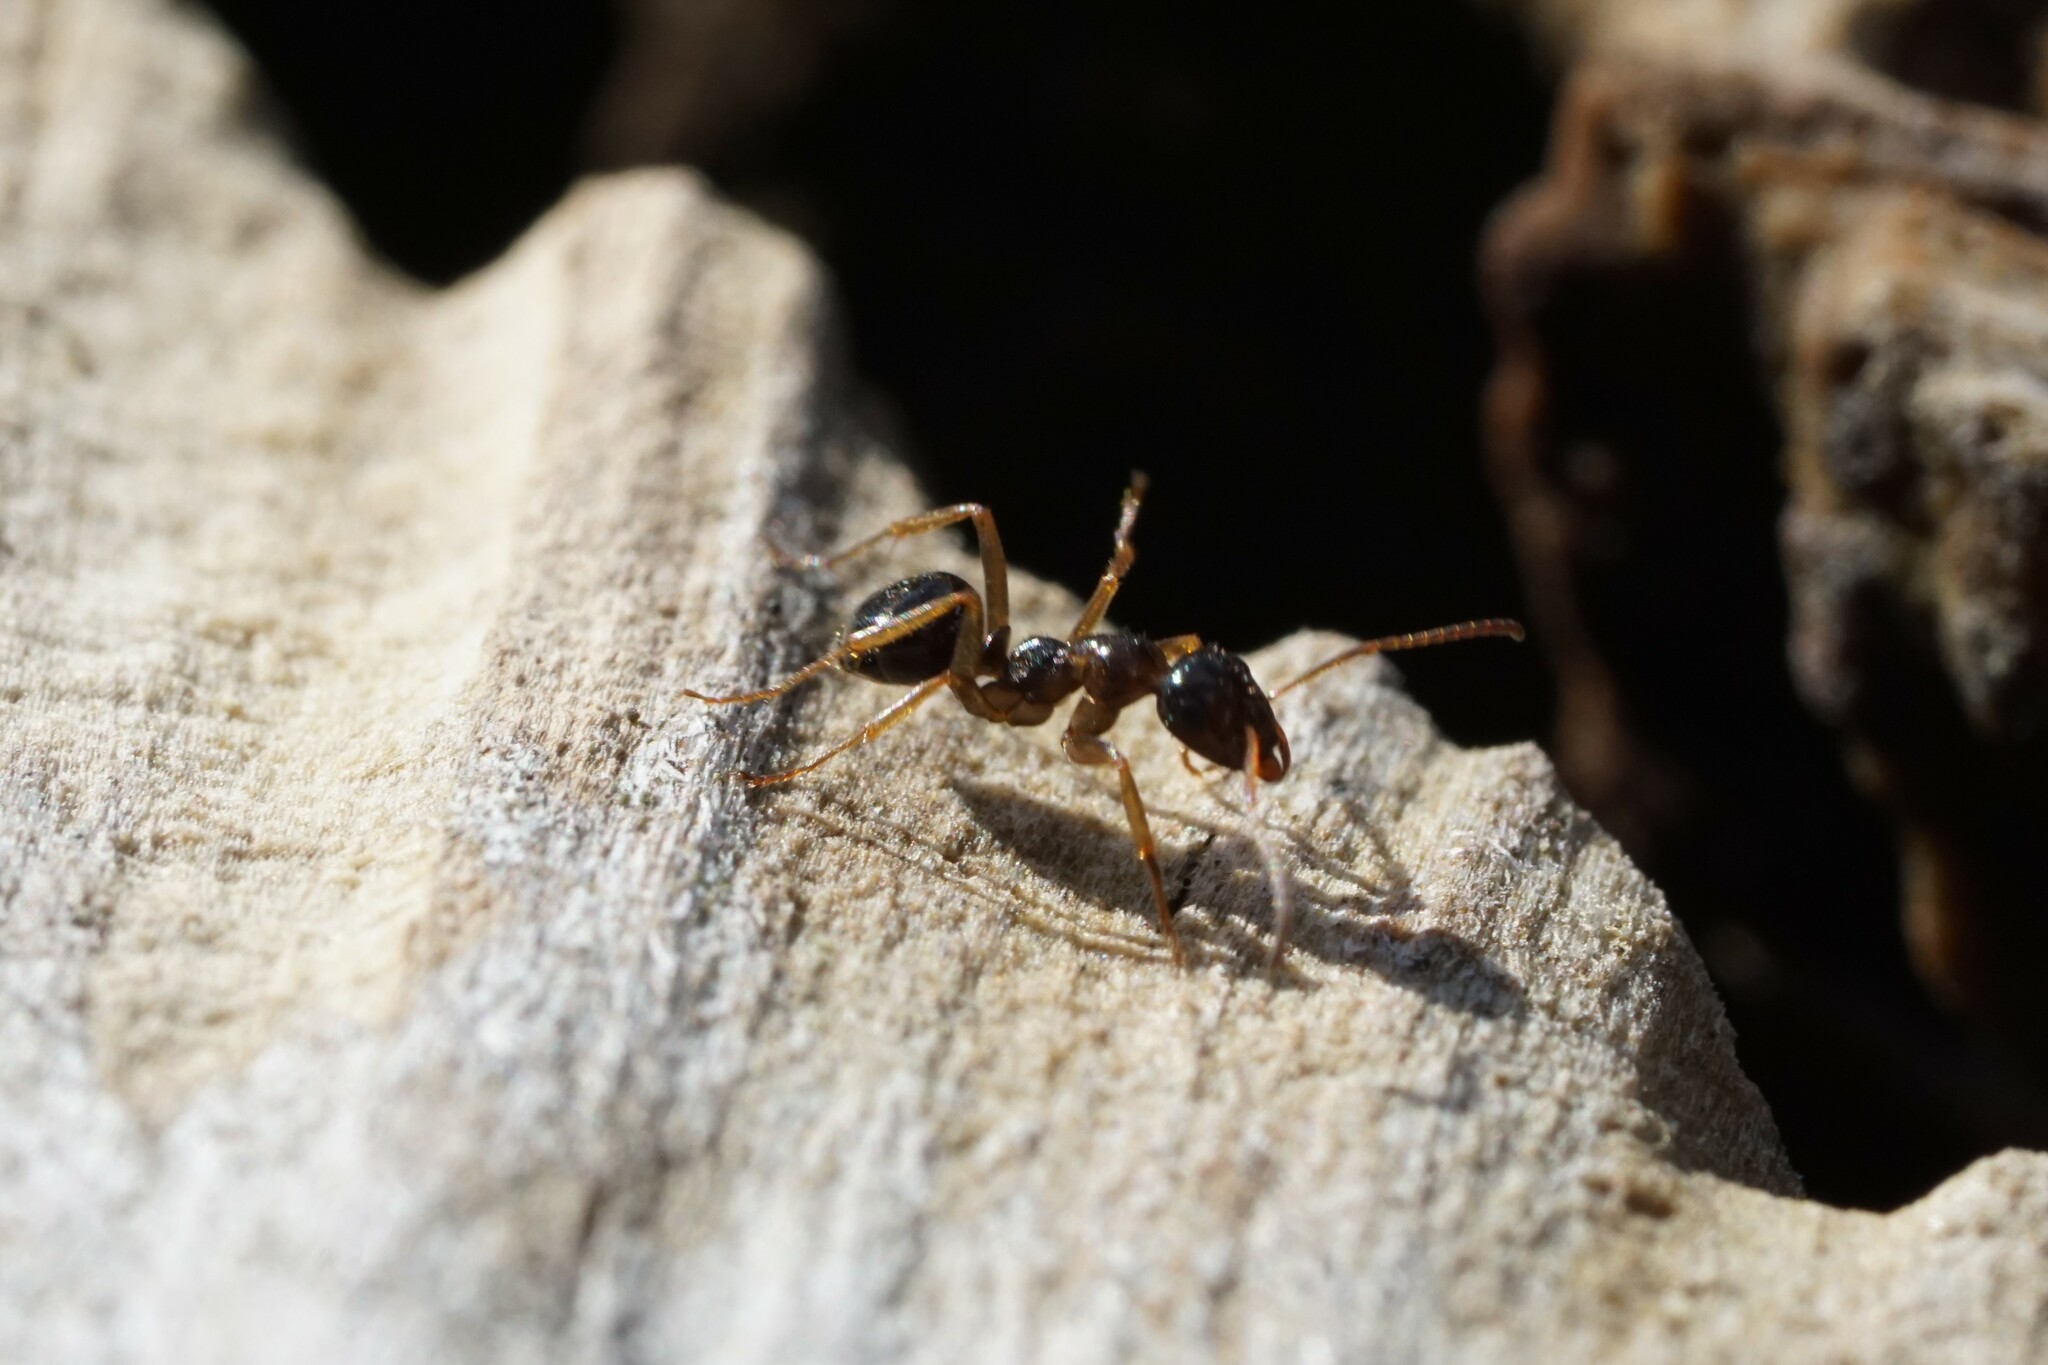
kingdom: Animalia
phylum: Arthropoda
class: Insecta
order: Hymenoptera
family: Formicidae
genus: Formica
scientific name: Formica neogagates
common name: New world black ant
